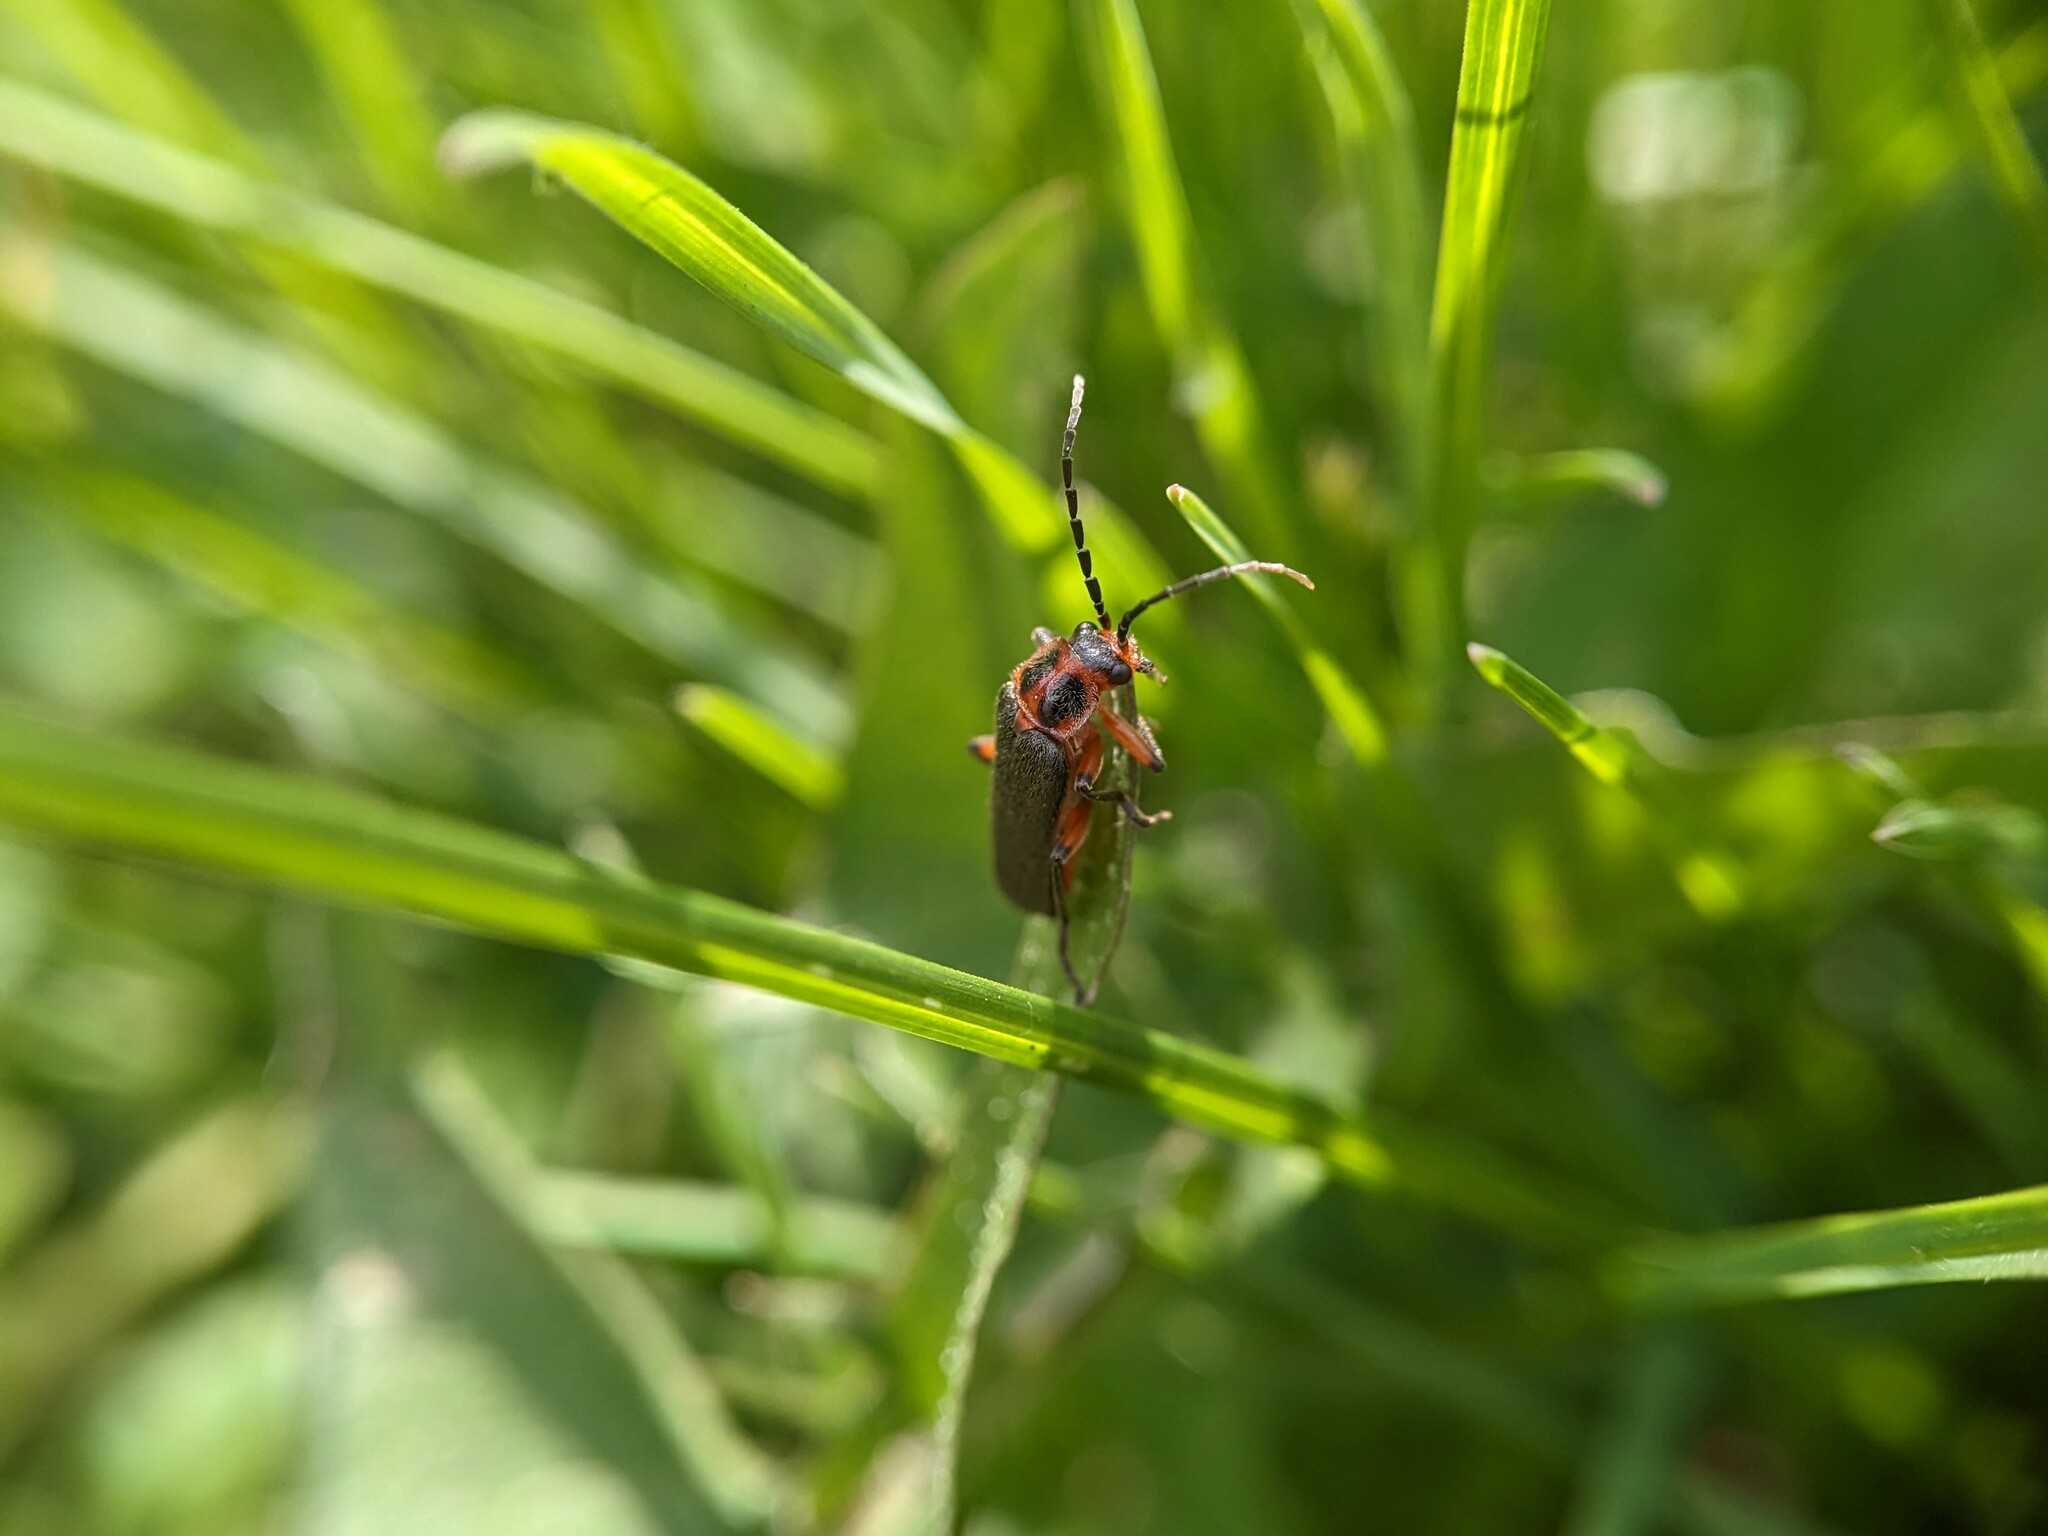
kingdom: Animalia
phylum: Arthropoda
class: Insecta
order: Coleoptera
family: Cantharidae
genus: Atalantycha
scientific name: Atalantycha bilineata
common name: Two-lined leatherwing
